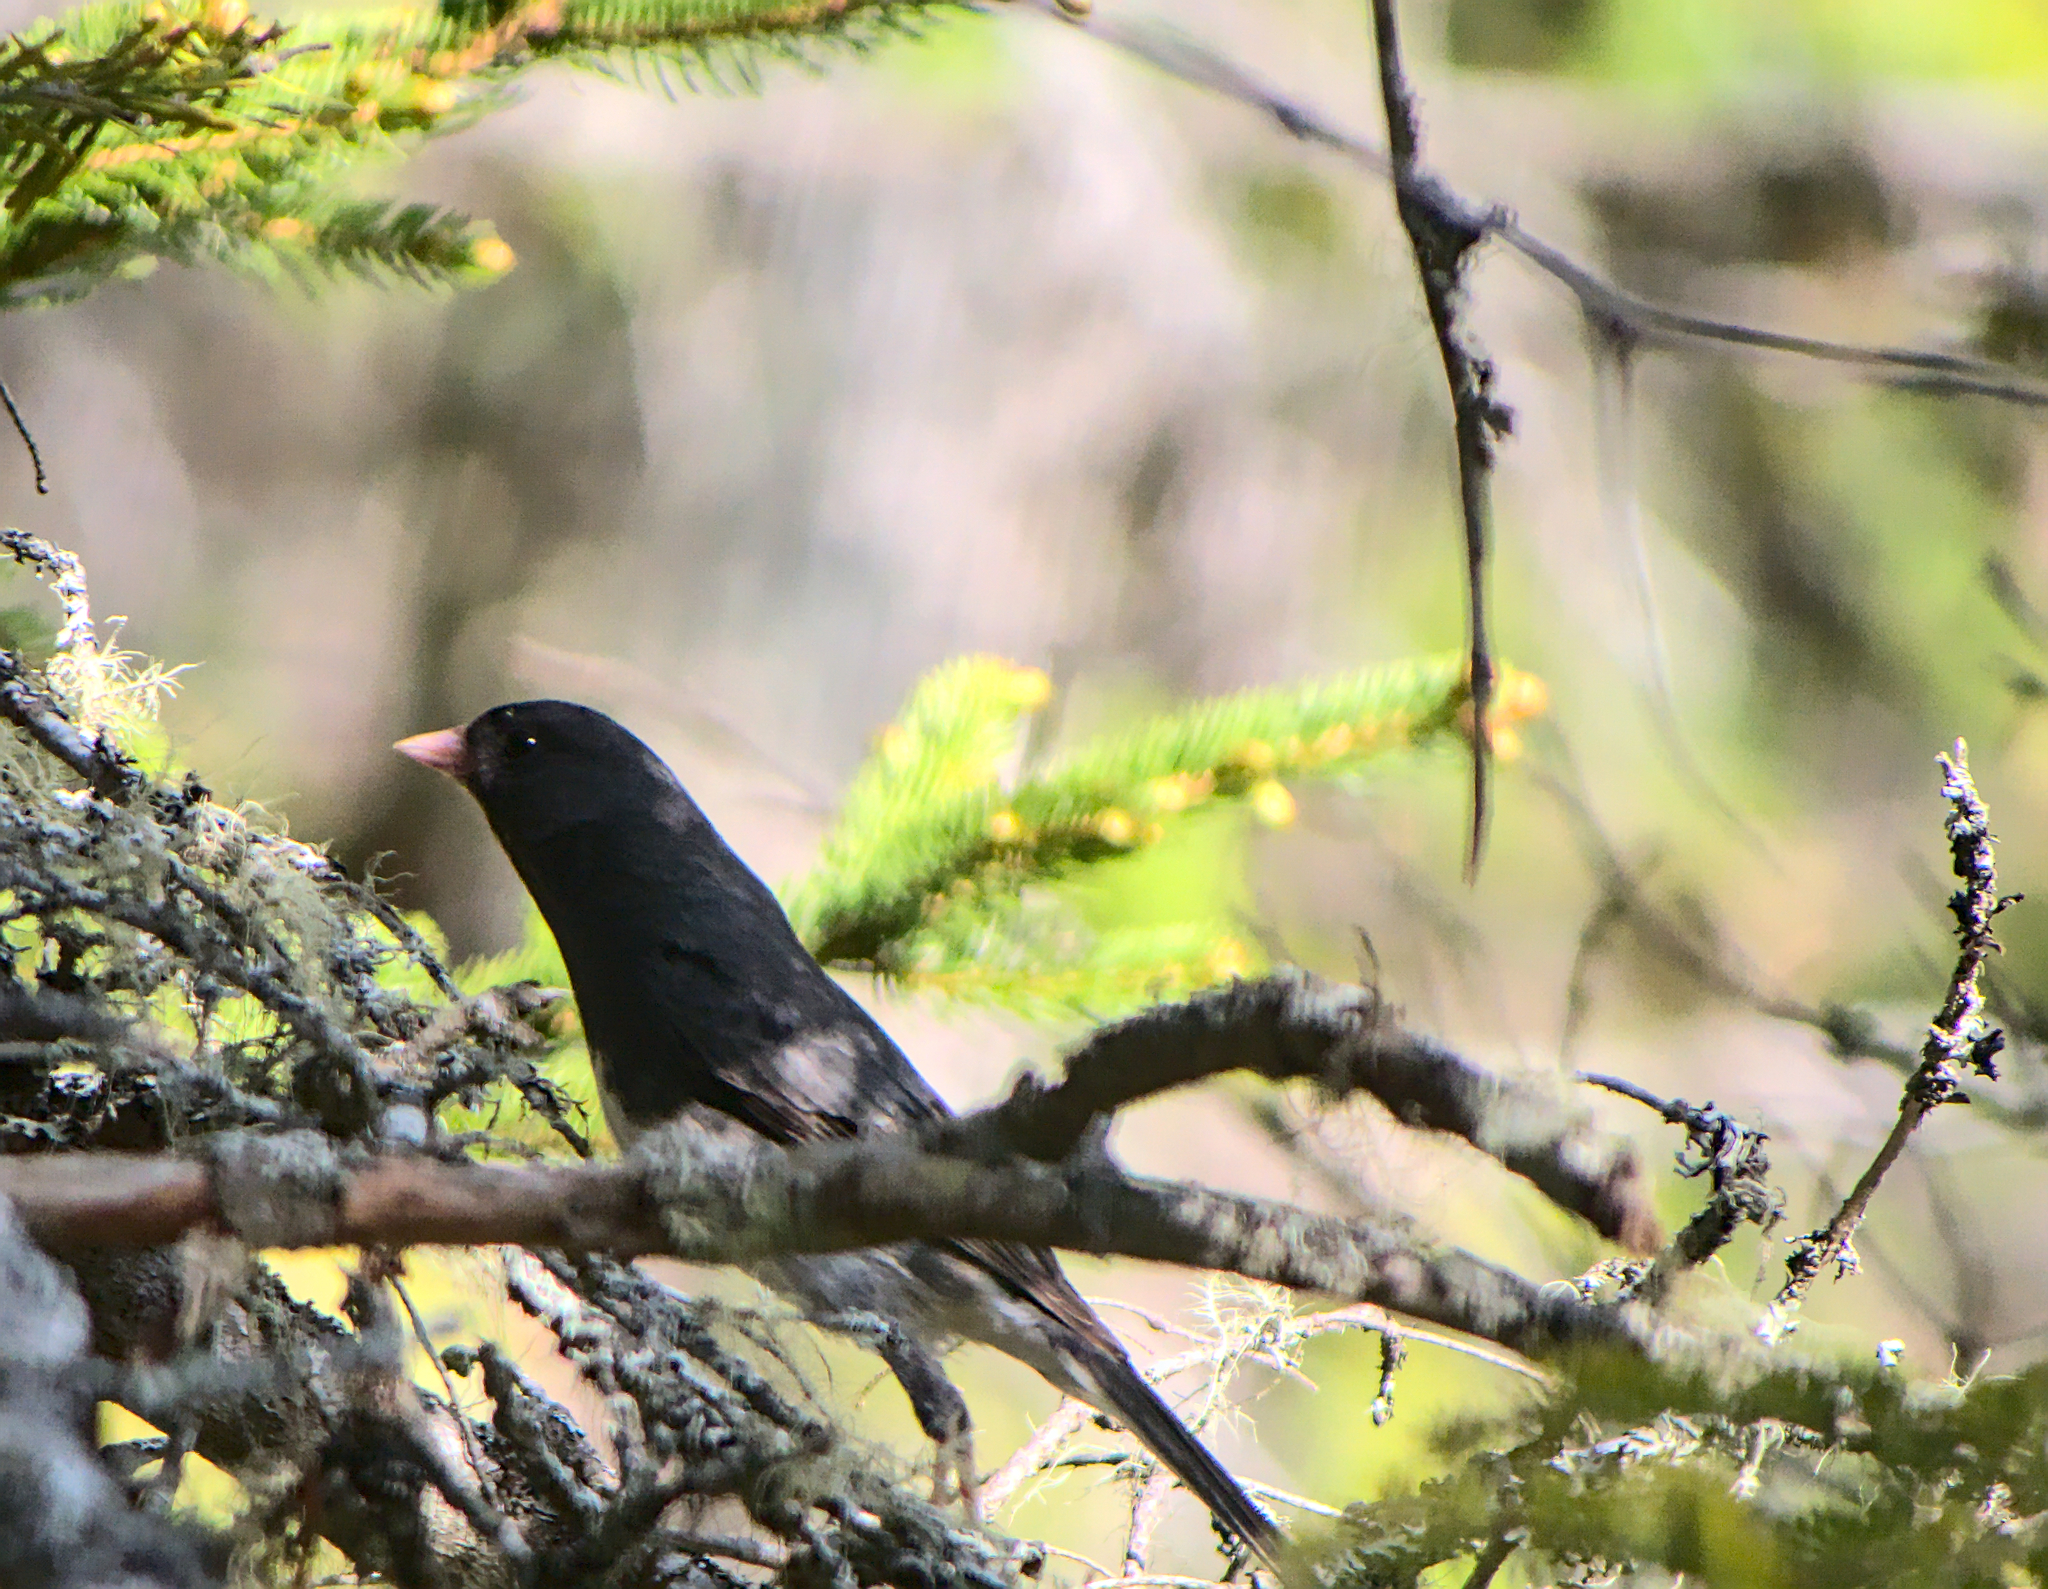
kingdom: Animalia
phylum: Chordata
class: Aves
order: Passeriformes
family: Passerellidae
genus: Junco
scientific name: Junco hyemalis
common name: Dark-eyed junco
